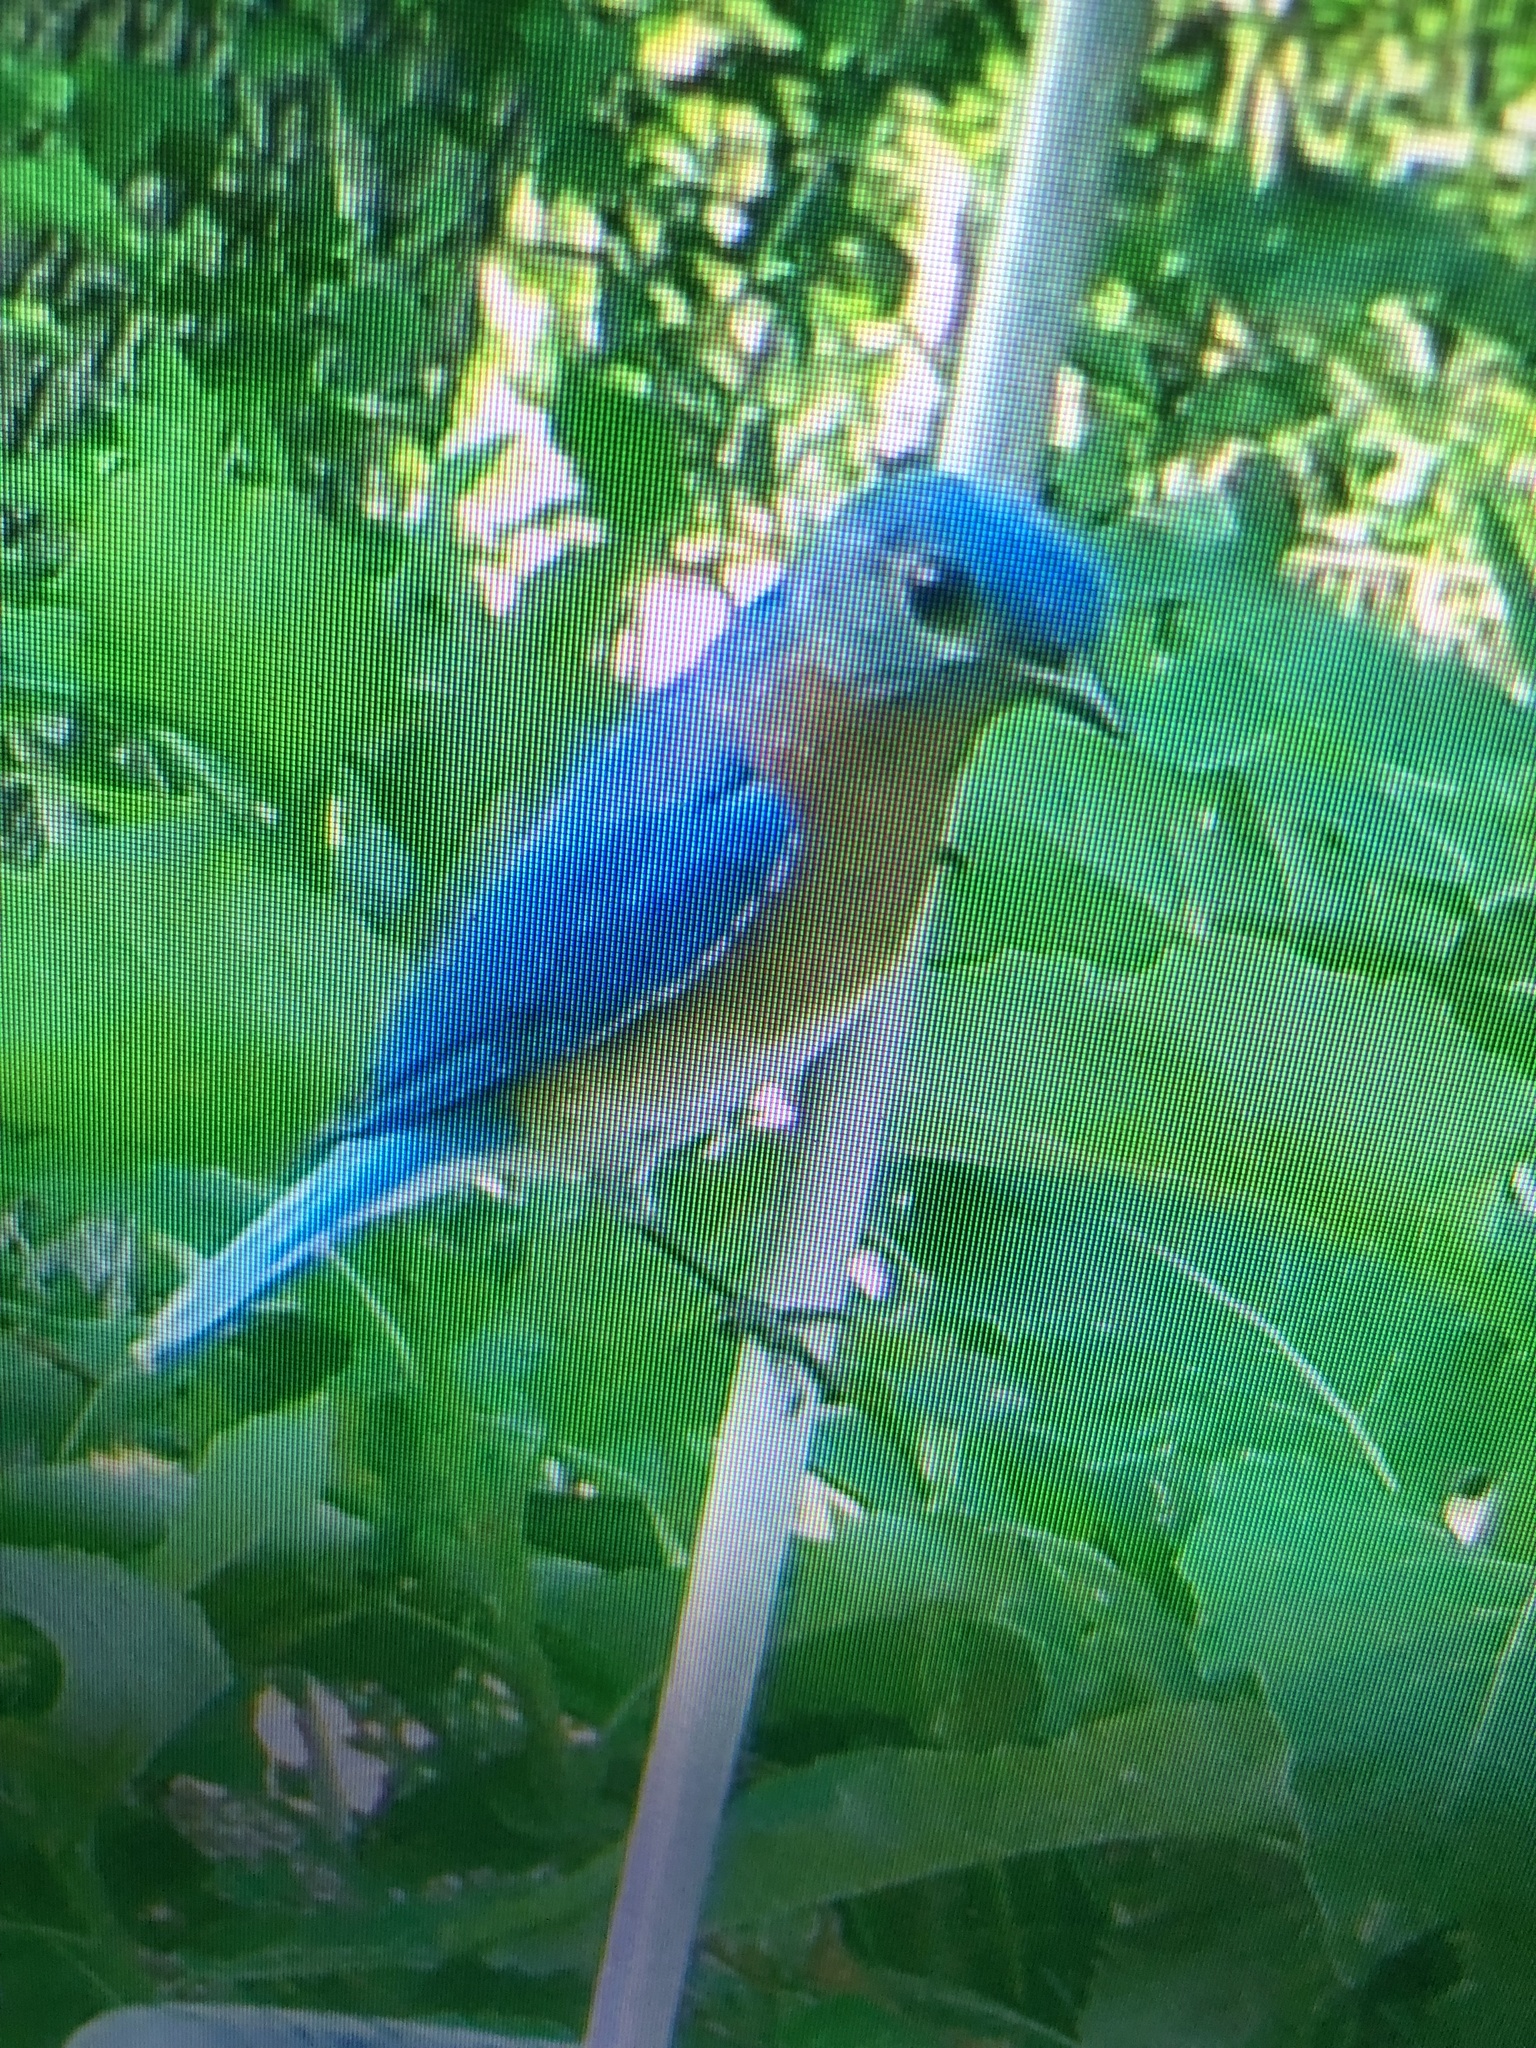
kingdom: Animalia
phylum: Chordata
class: Aves
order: Passeriformes
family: Turdidae
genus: Sialia
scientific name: Sialia sialis
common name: Eastern bluebird
